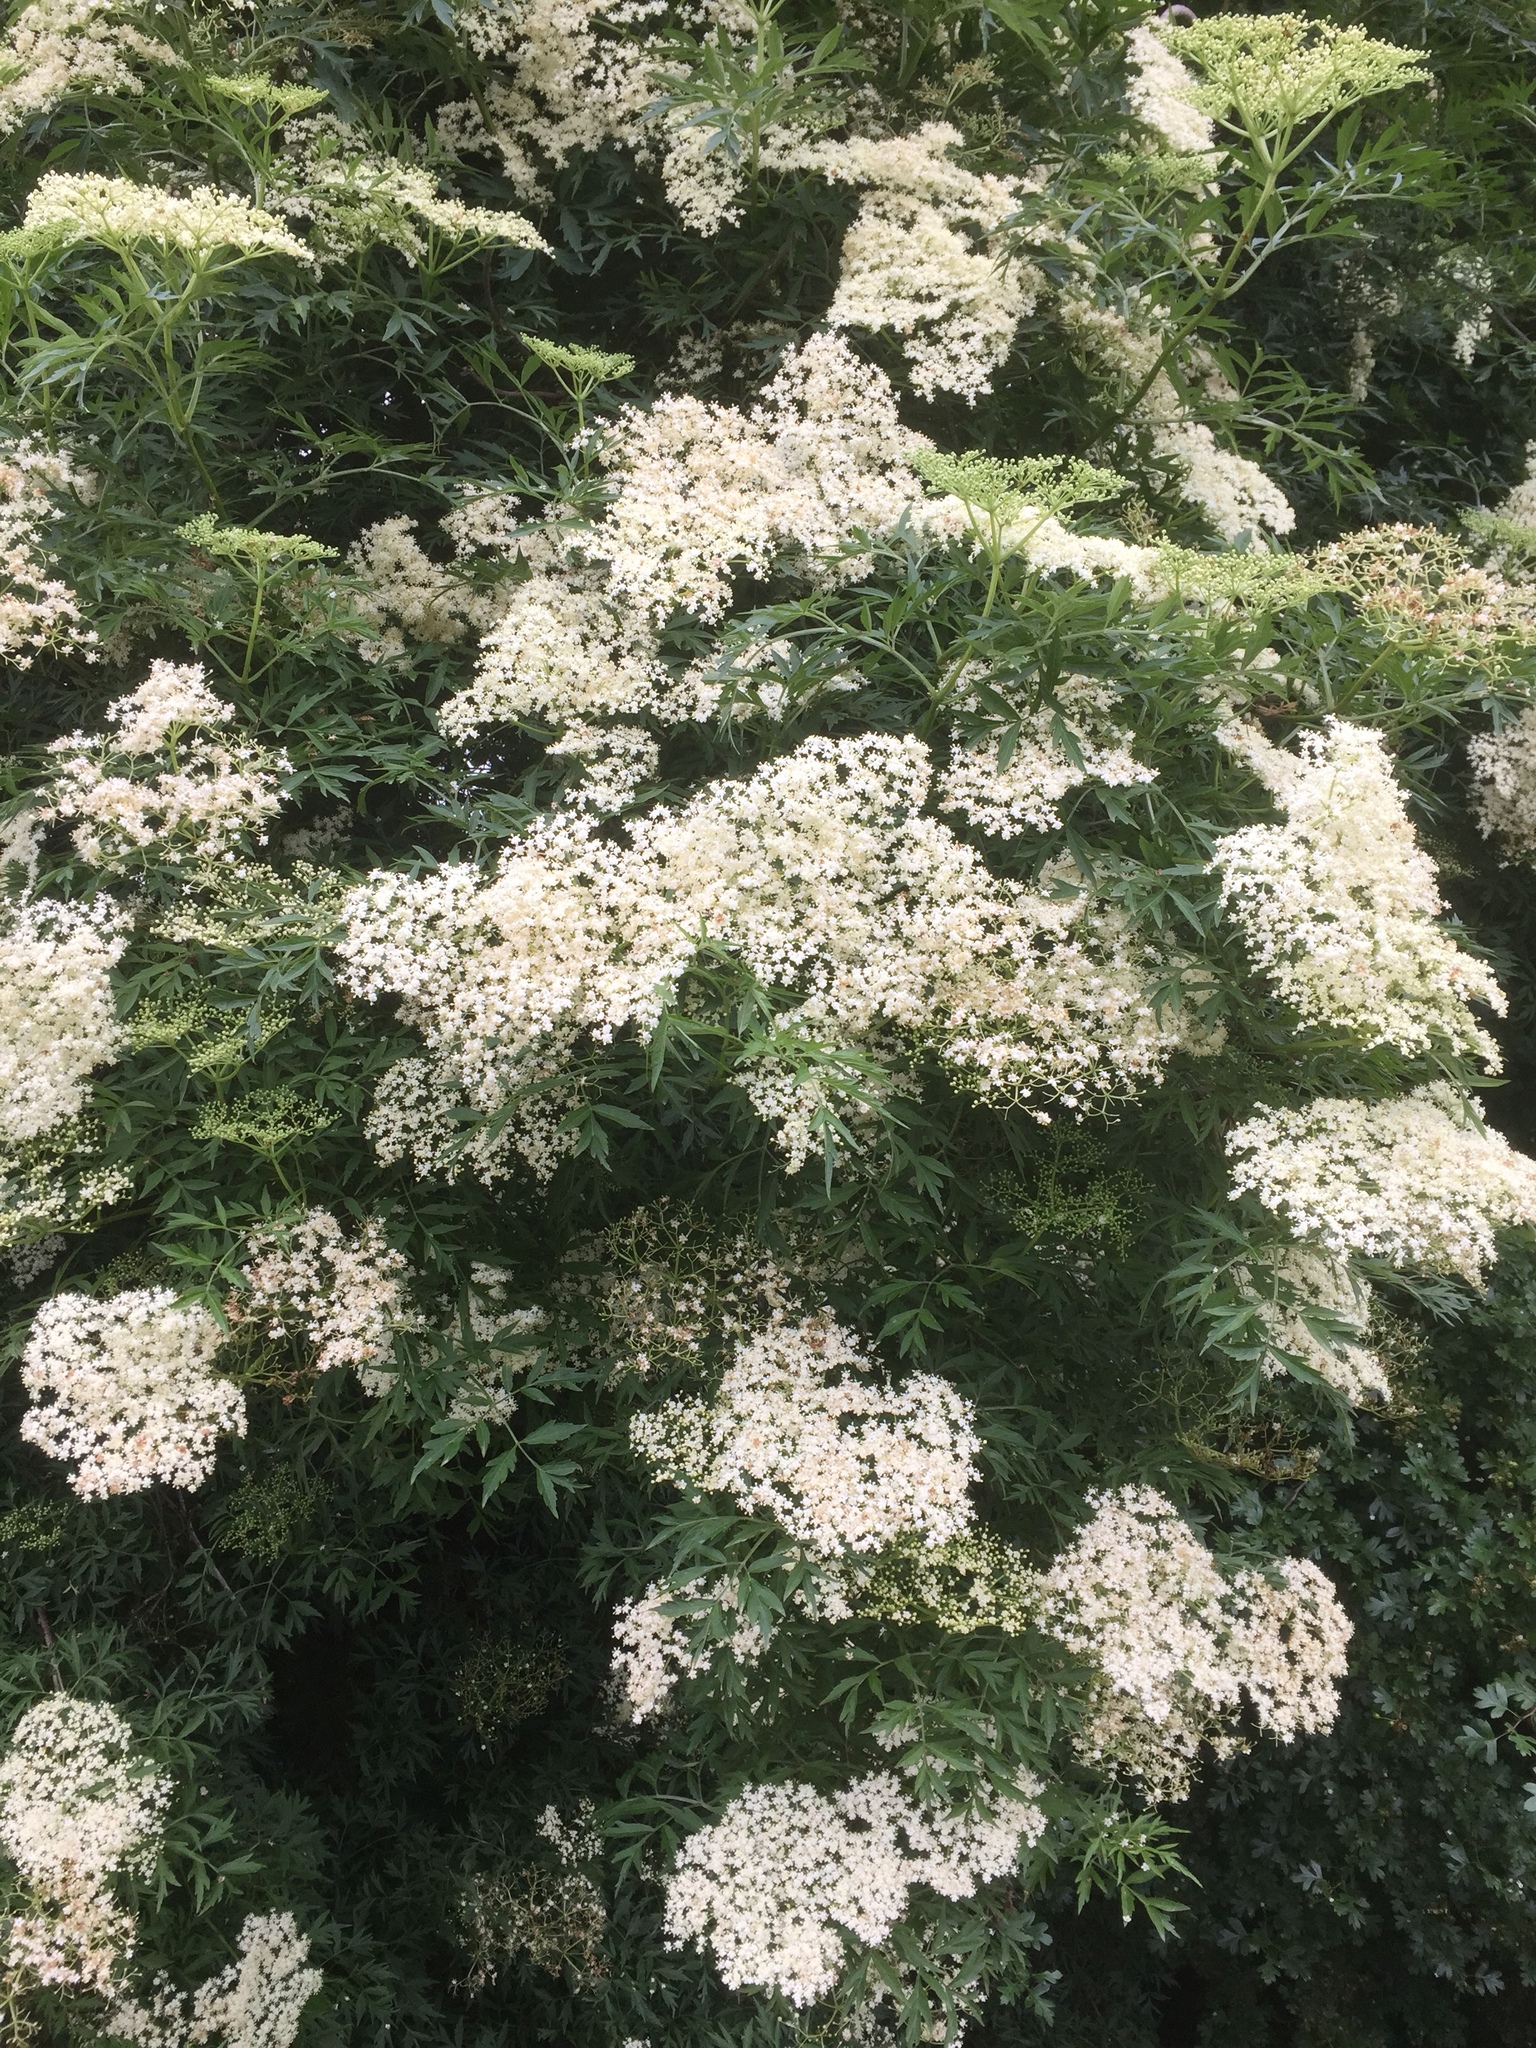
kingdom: Plantae
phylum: Tracheophyta
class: Magnoliopsida
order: Dipsacales
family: Viburnaceae
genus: Sambucus
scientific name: Sambucus nigra
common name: Elder
